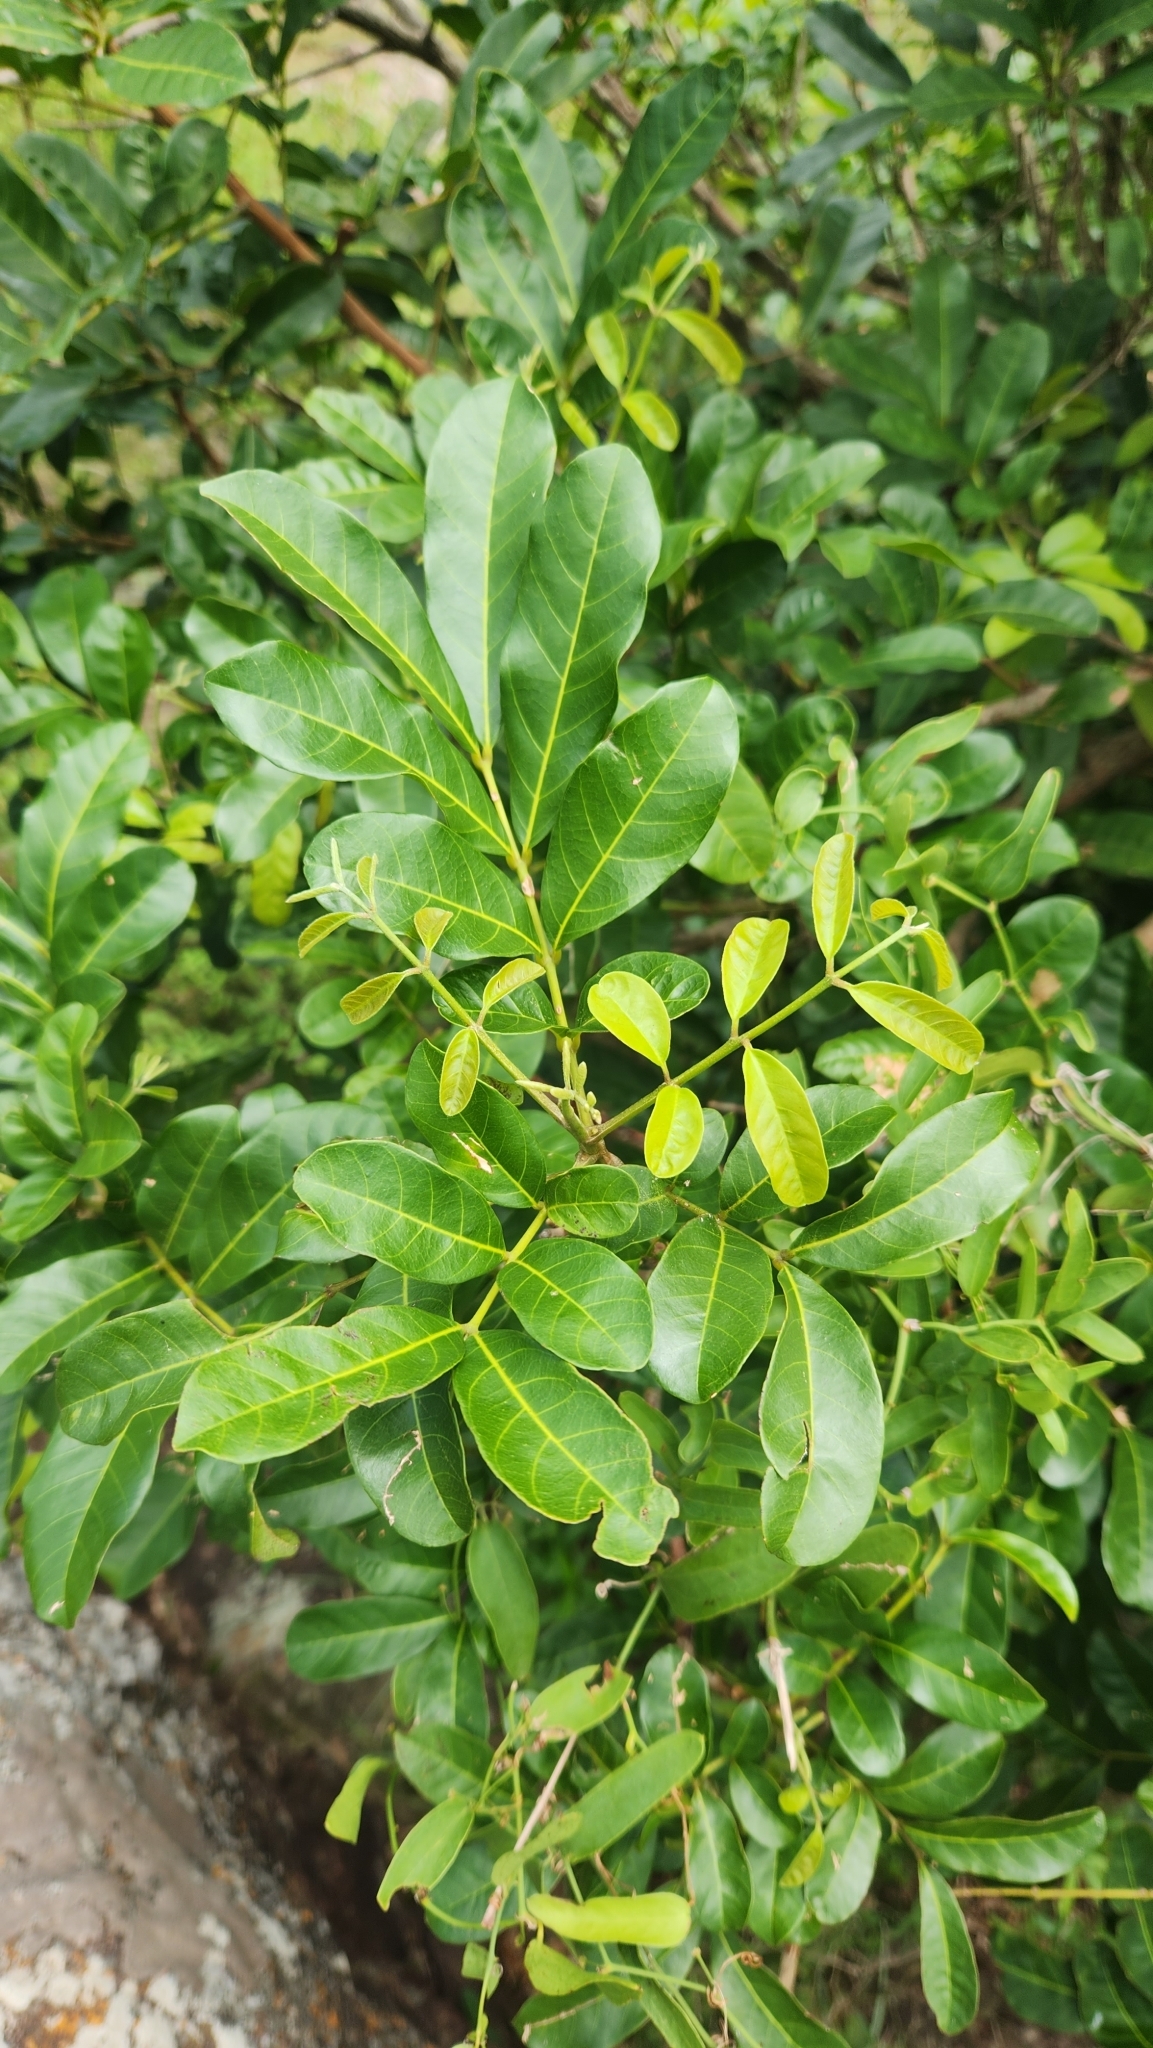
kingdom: Plantae
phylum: Tracheophyta
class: Magnoliopsida
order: Sapindales
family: Meliaceae
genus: Guarea
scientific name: Guarea macrophylla
